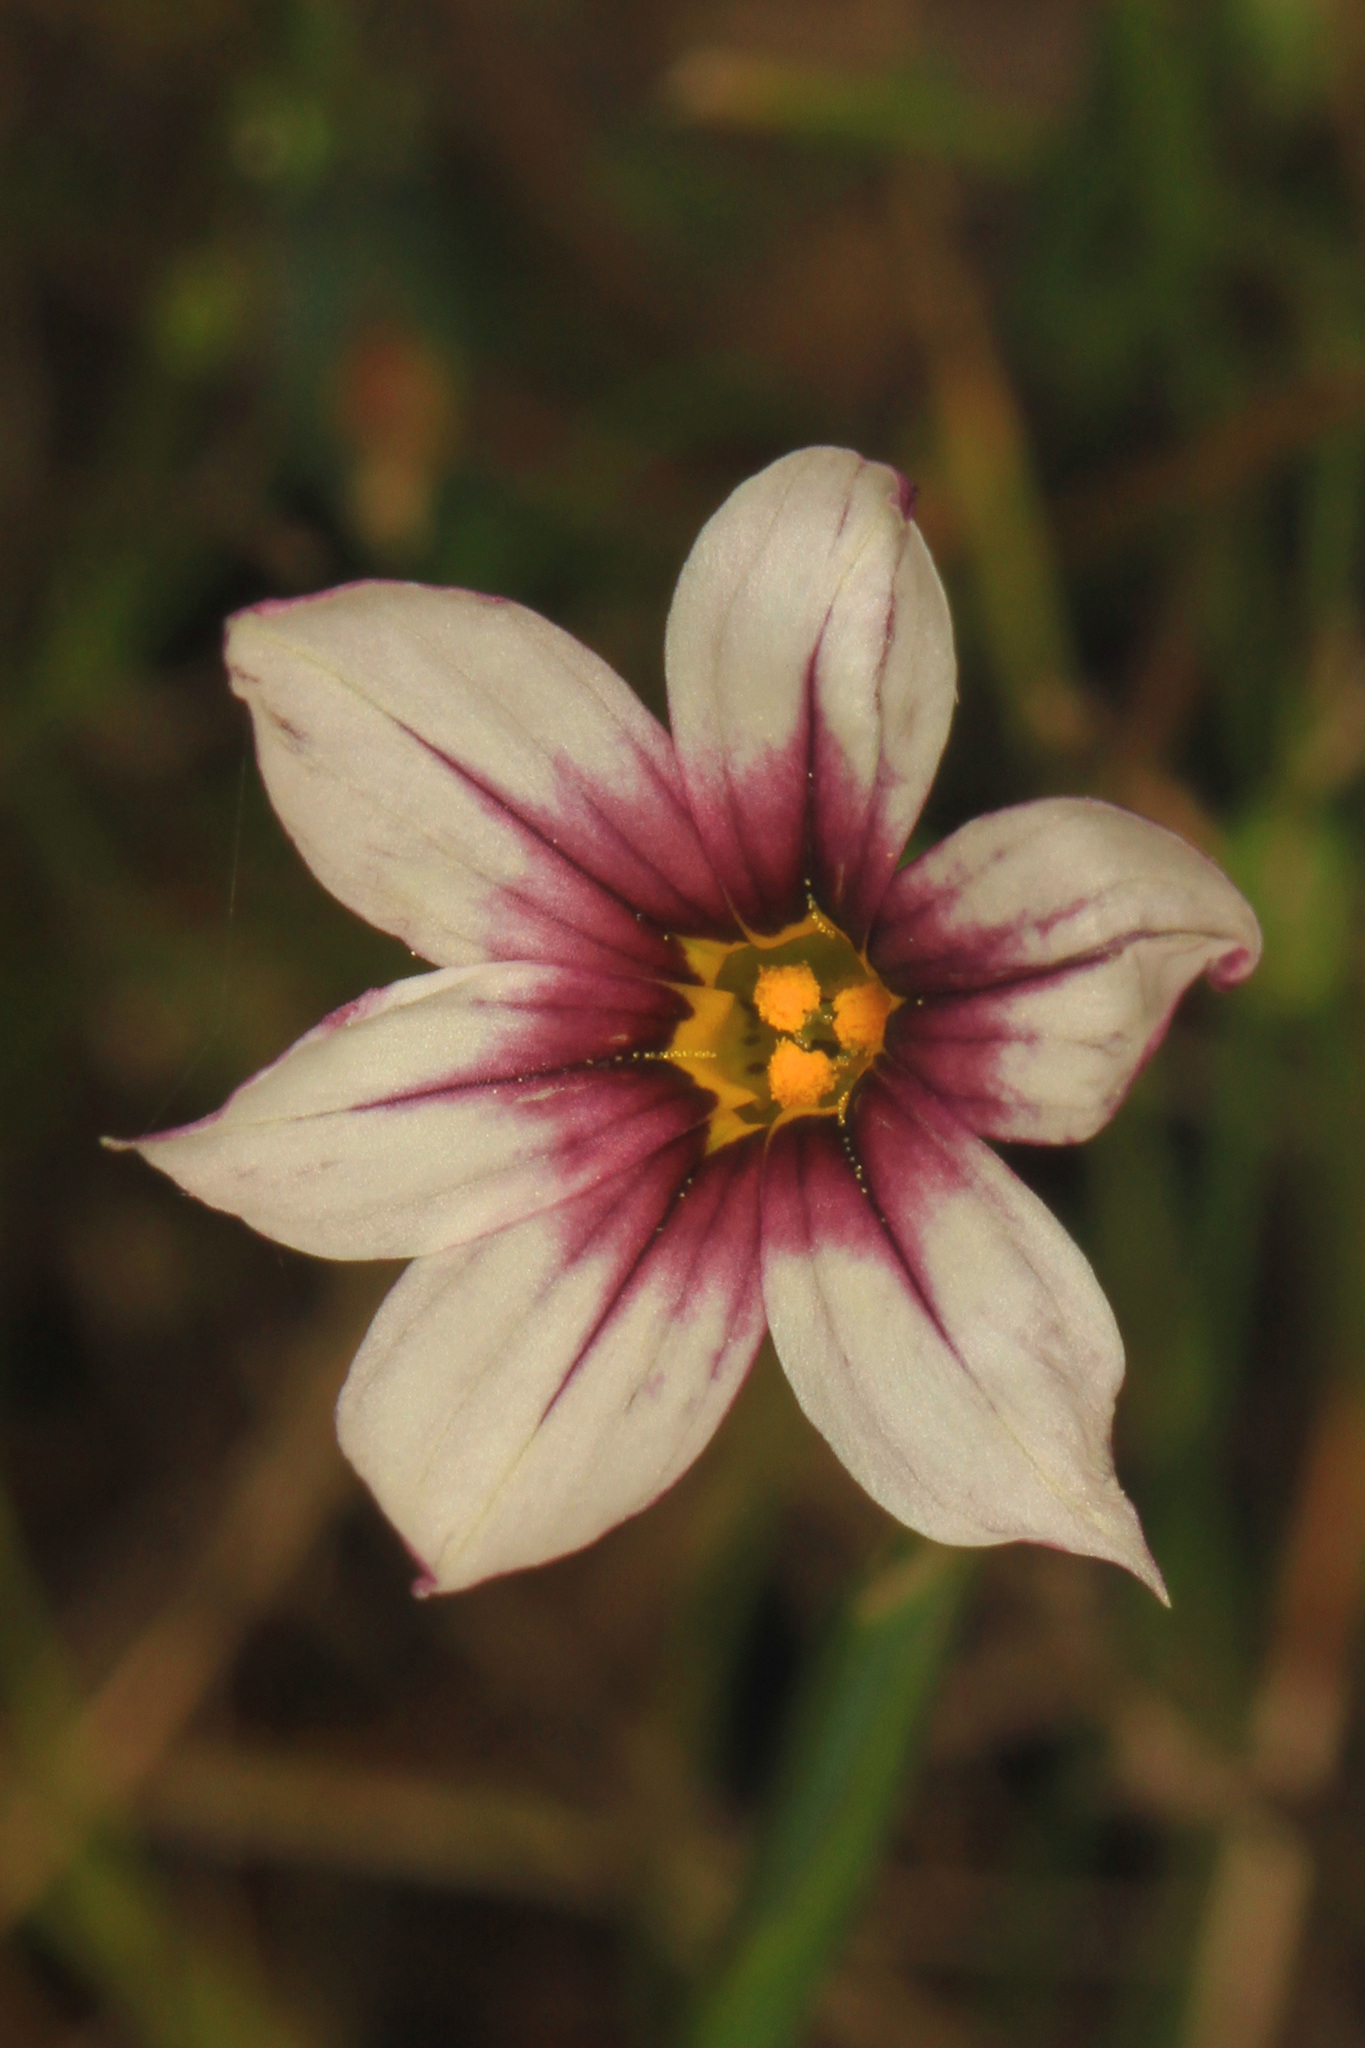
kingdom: Plantae
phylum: Tracheophyta
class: Liliopsida
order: Asparagales
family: Iridaceae
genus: Sisyrinchium
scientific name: Sisyrinchium micranthum
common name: Bermuda pigroot
